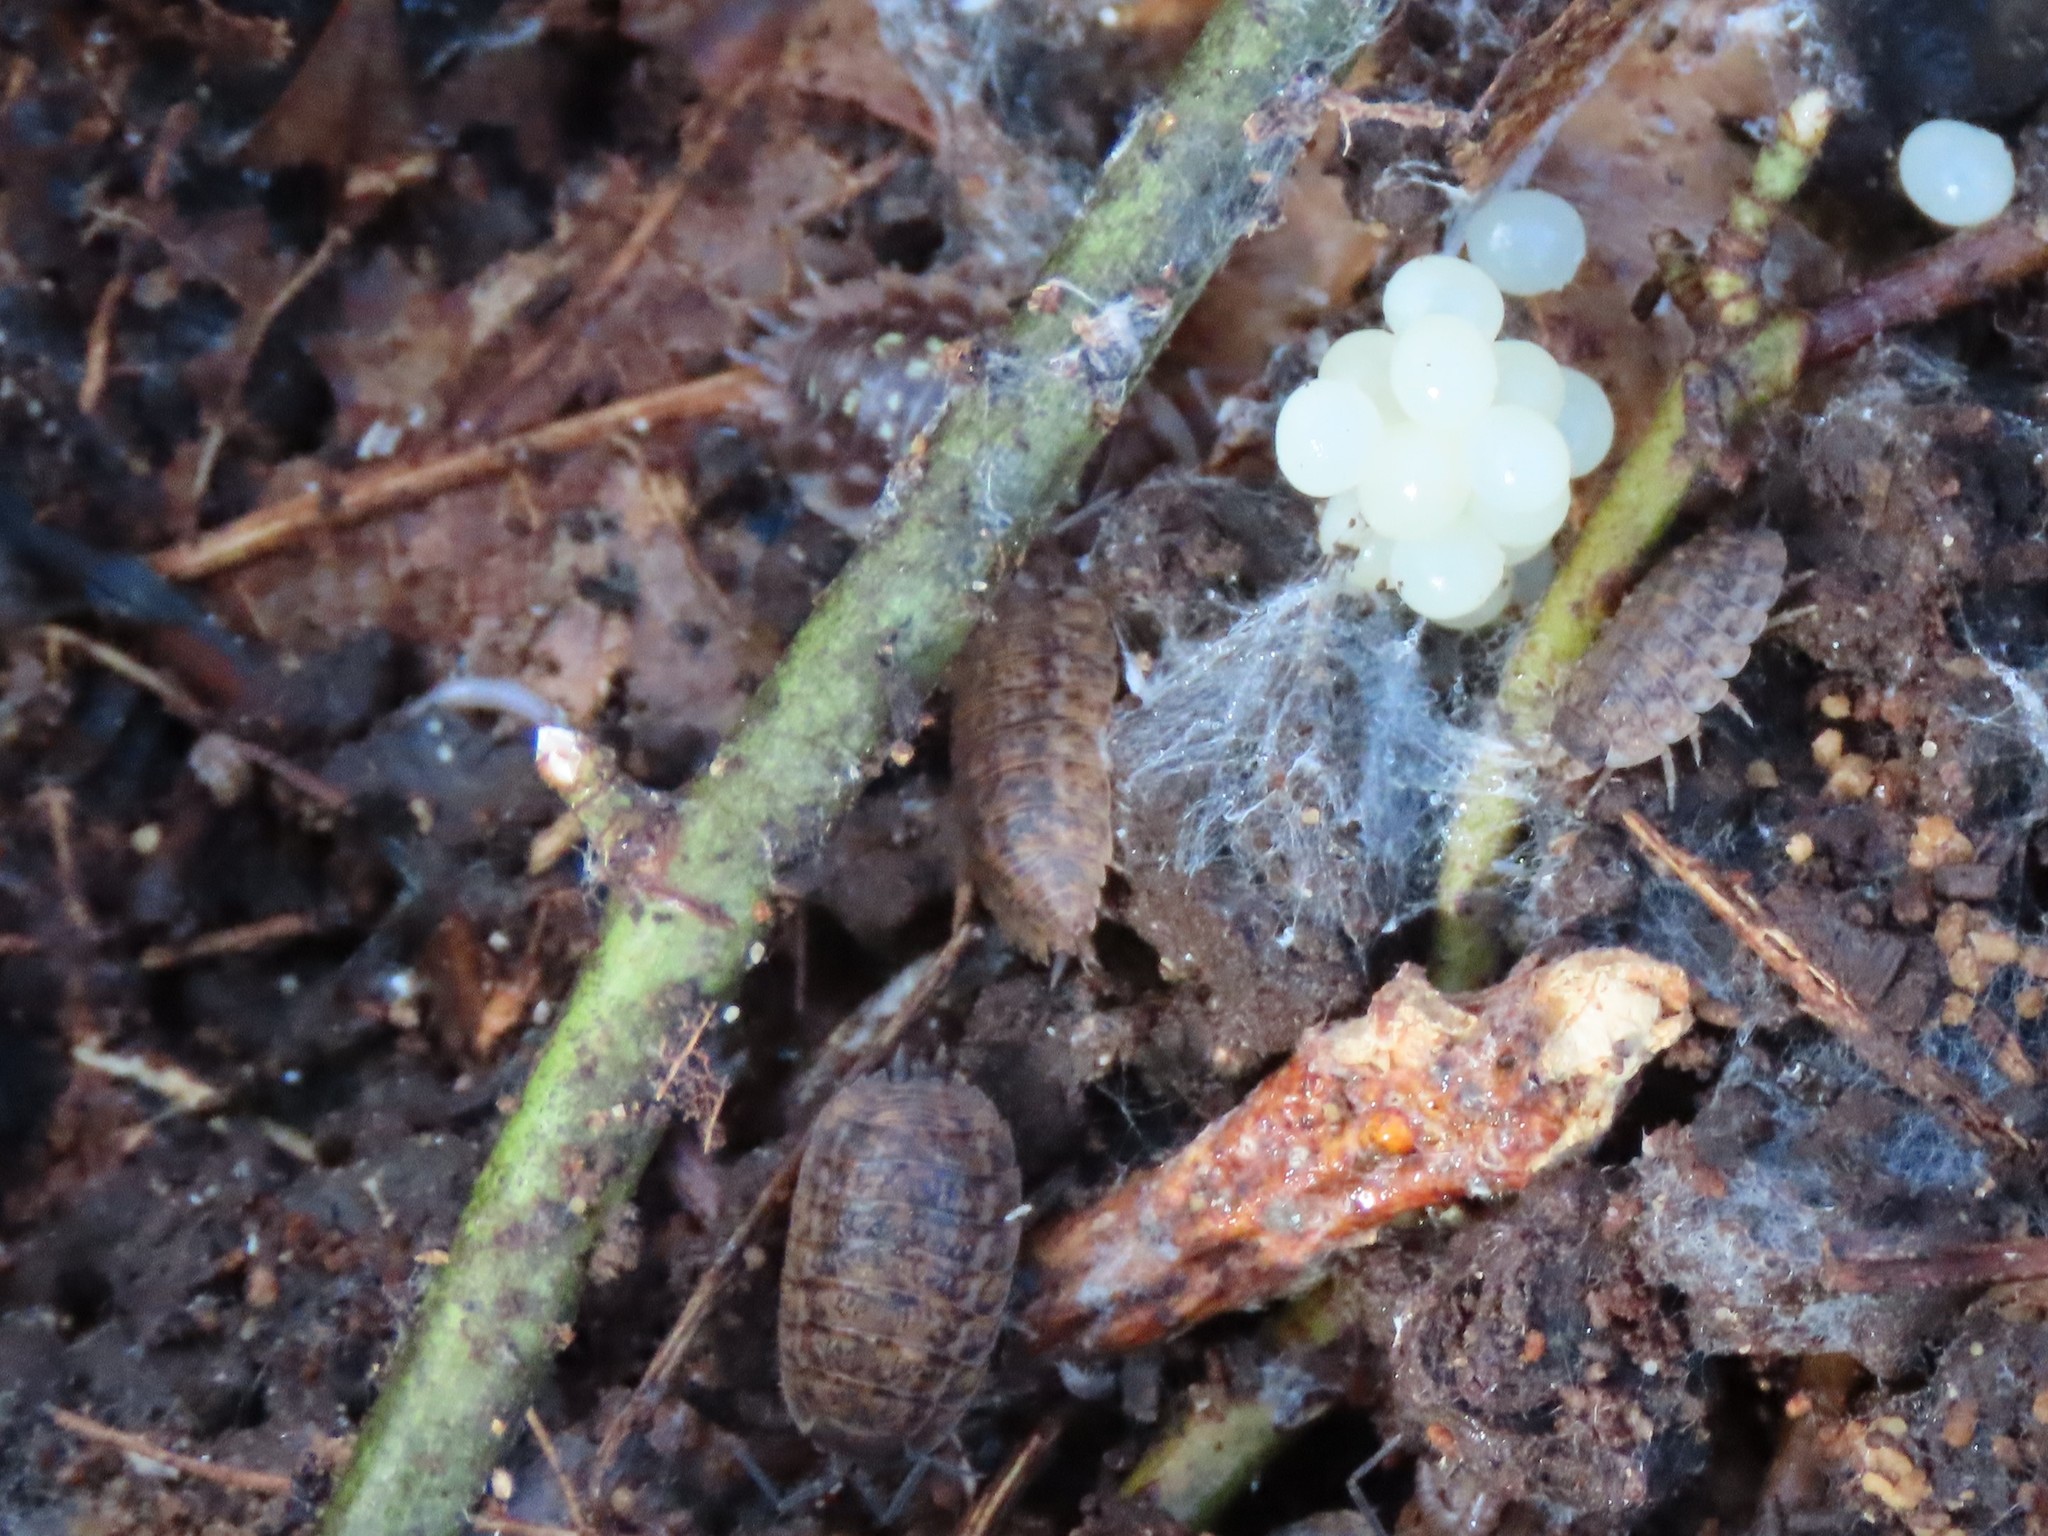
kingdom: Animalia
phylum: Arthropoda
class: Malacostraca
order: Isopoda
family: Trachelipodidae
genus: Trachelipus
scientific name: Trachelipus rathkii
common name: Isopod
